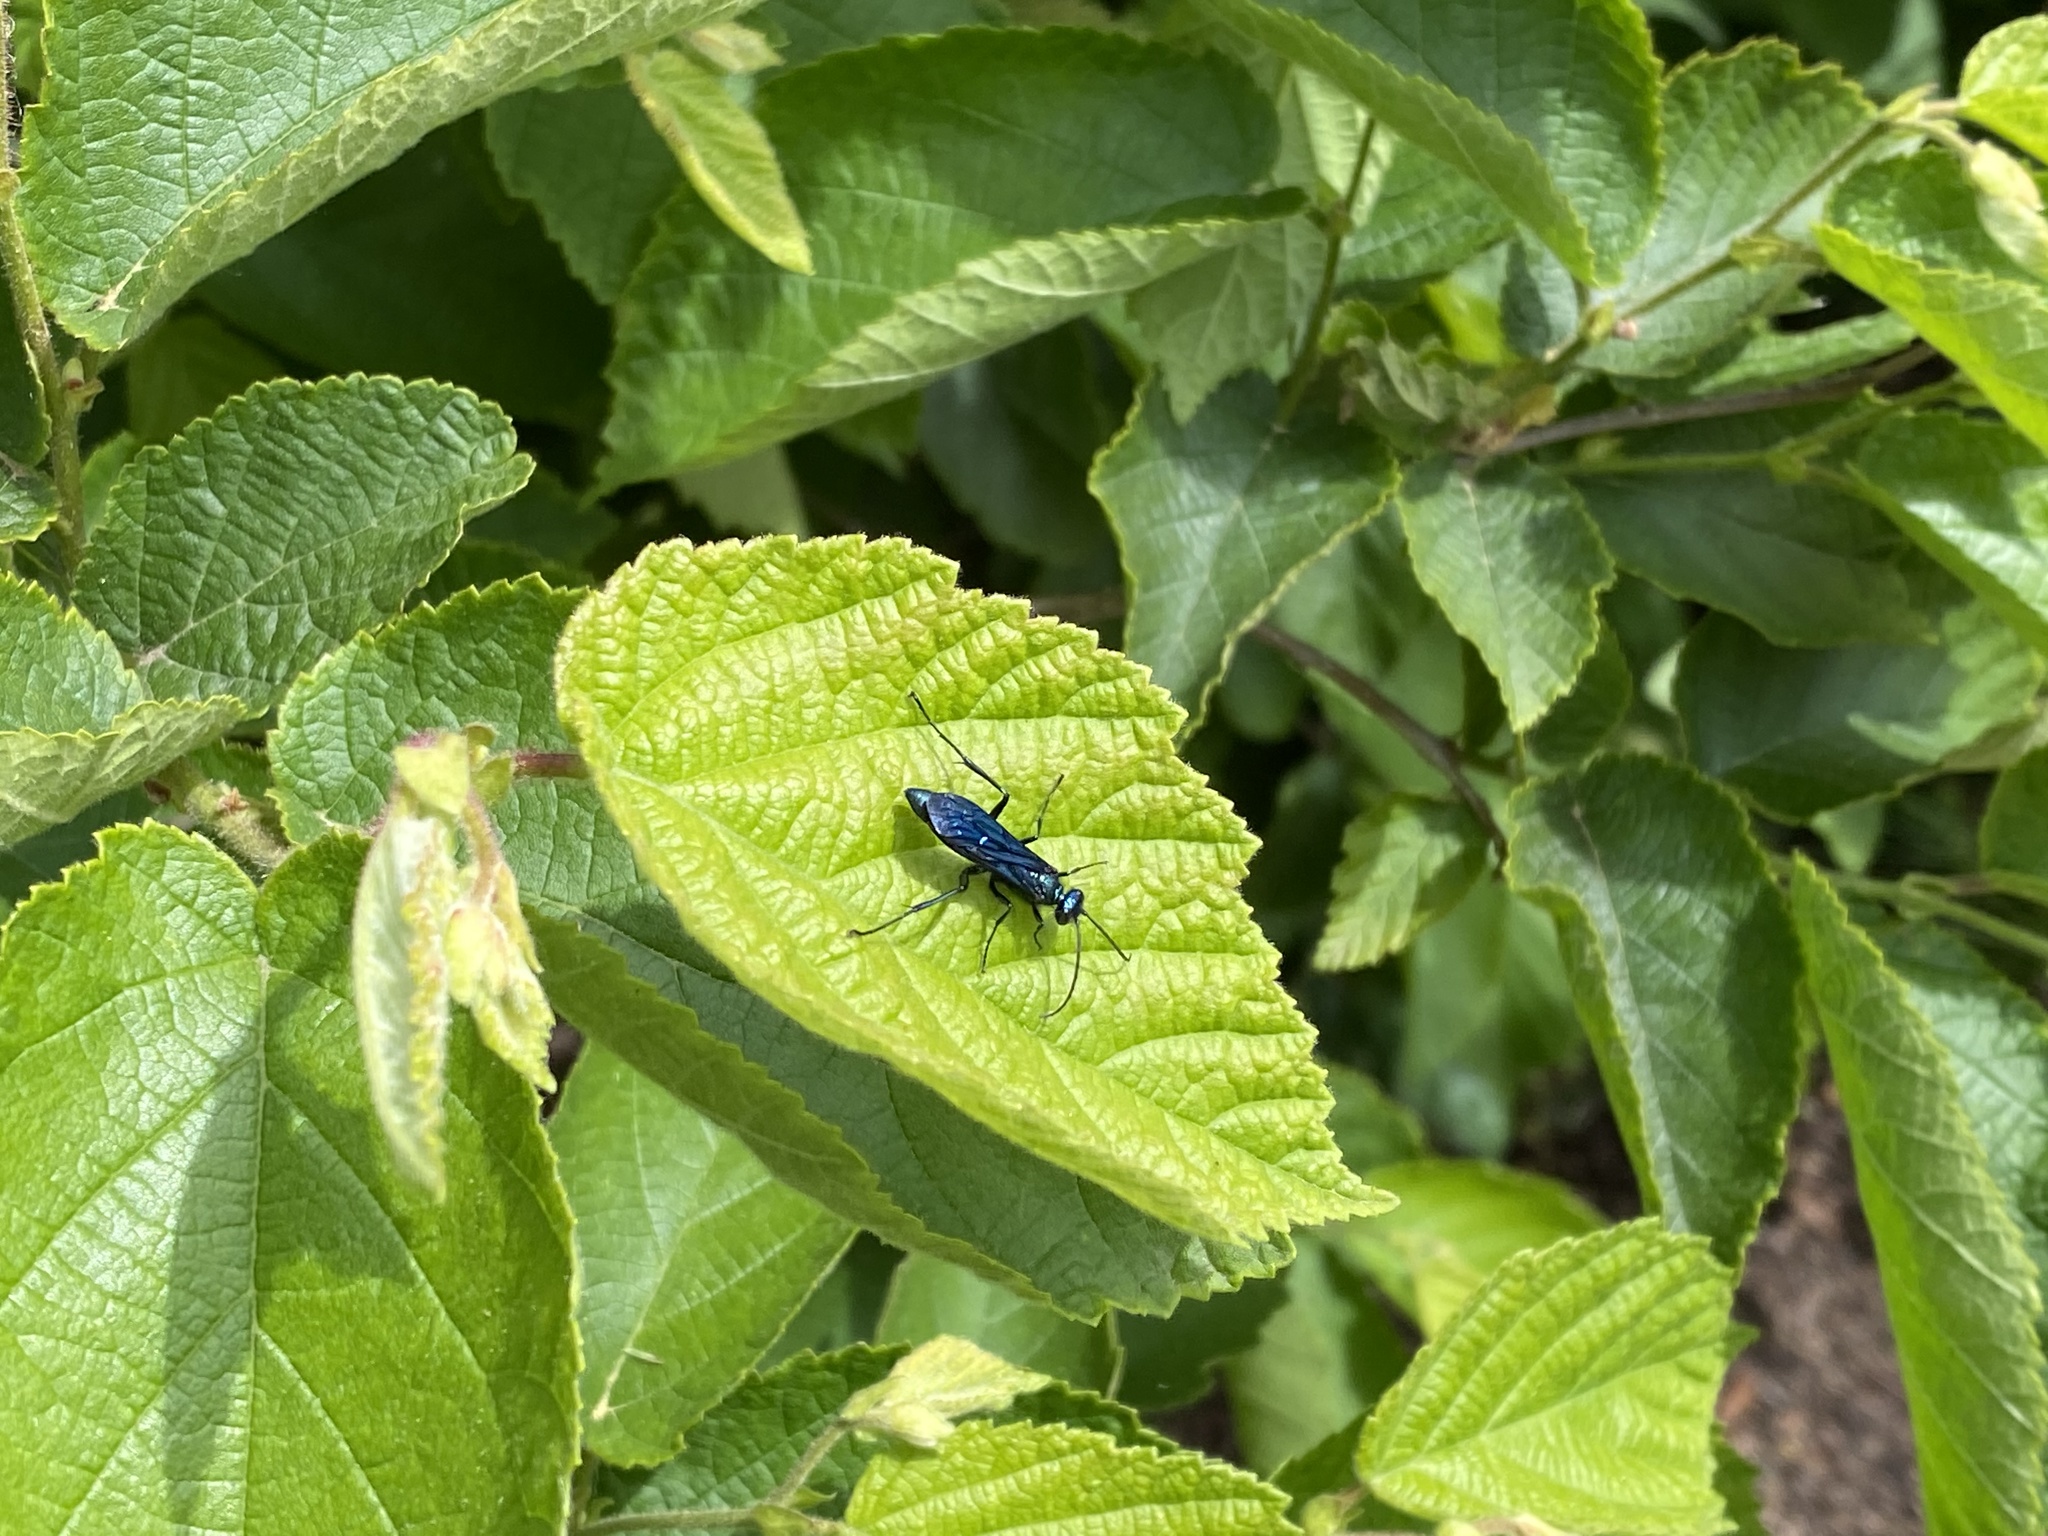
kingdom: Animalia
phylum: Arthropoda
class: Insecta
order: Hymenoptera
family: Sphecidae
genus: Chalybion
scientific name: Chalybion californicum
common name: Mud dauber
